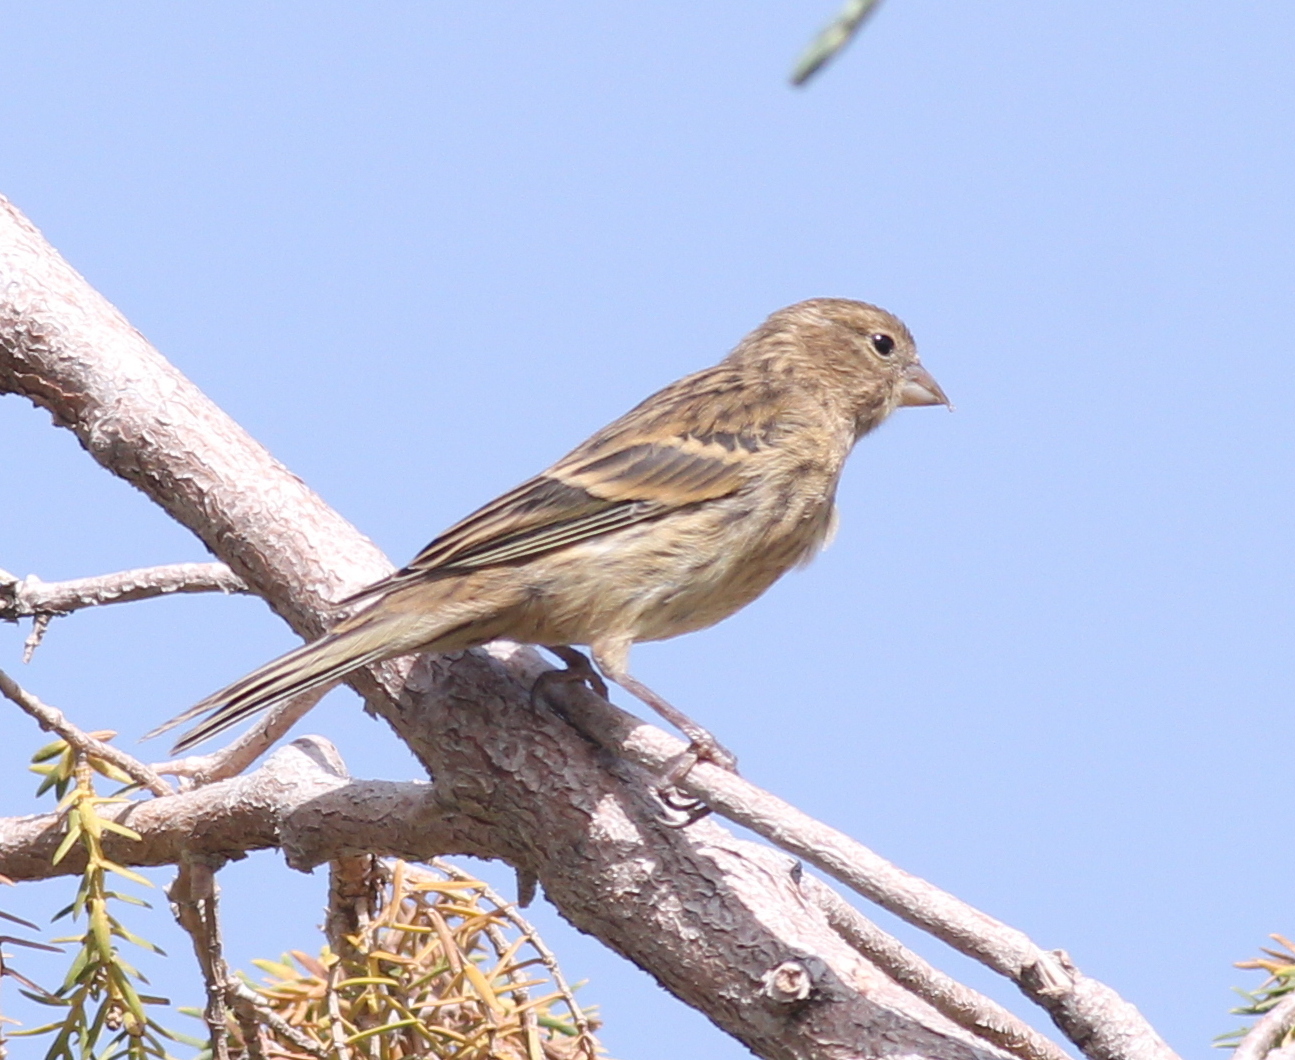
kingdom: Animalia
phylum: Chordata
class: Aves
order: Passeriformes
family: Fringillidae
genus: Serinus
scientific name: Serinus canaria
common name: Atlantic canary
